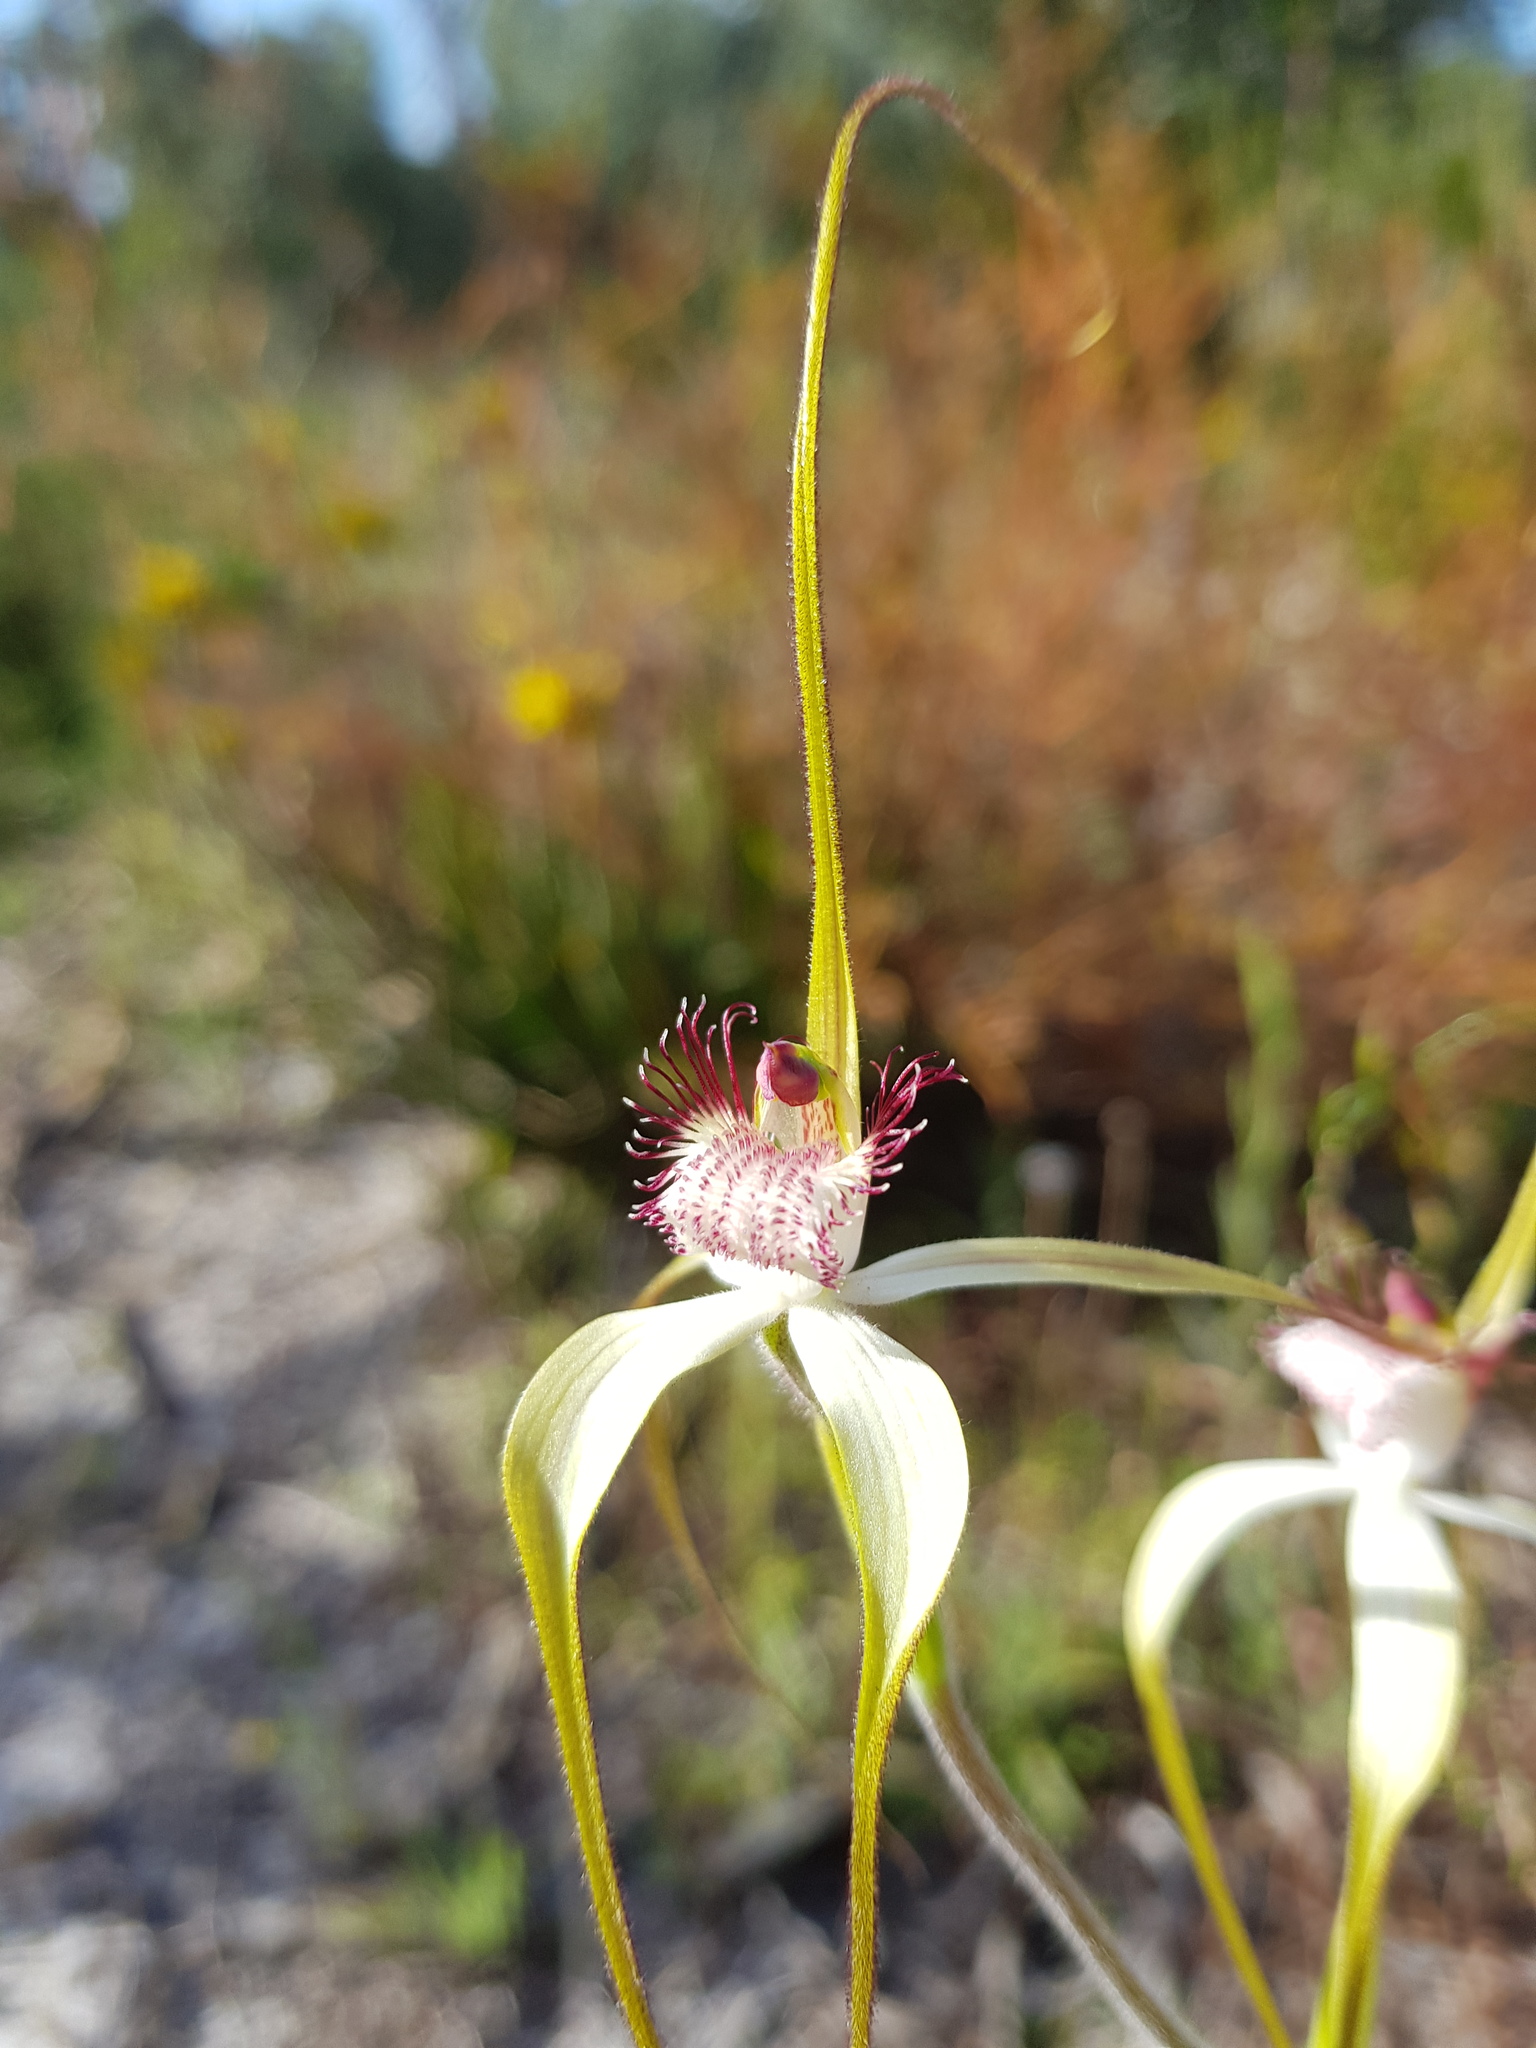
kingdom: Plantae
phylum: Tracheophyta
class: Liliopsida
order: Asparagales
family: Orchidaceae
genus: Caladenia
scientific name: Caladenia longicauda
